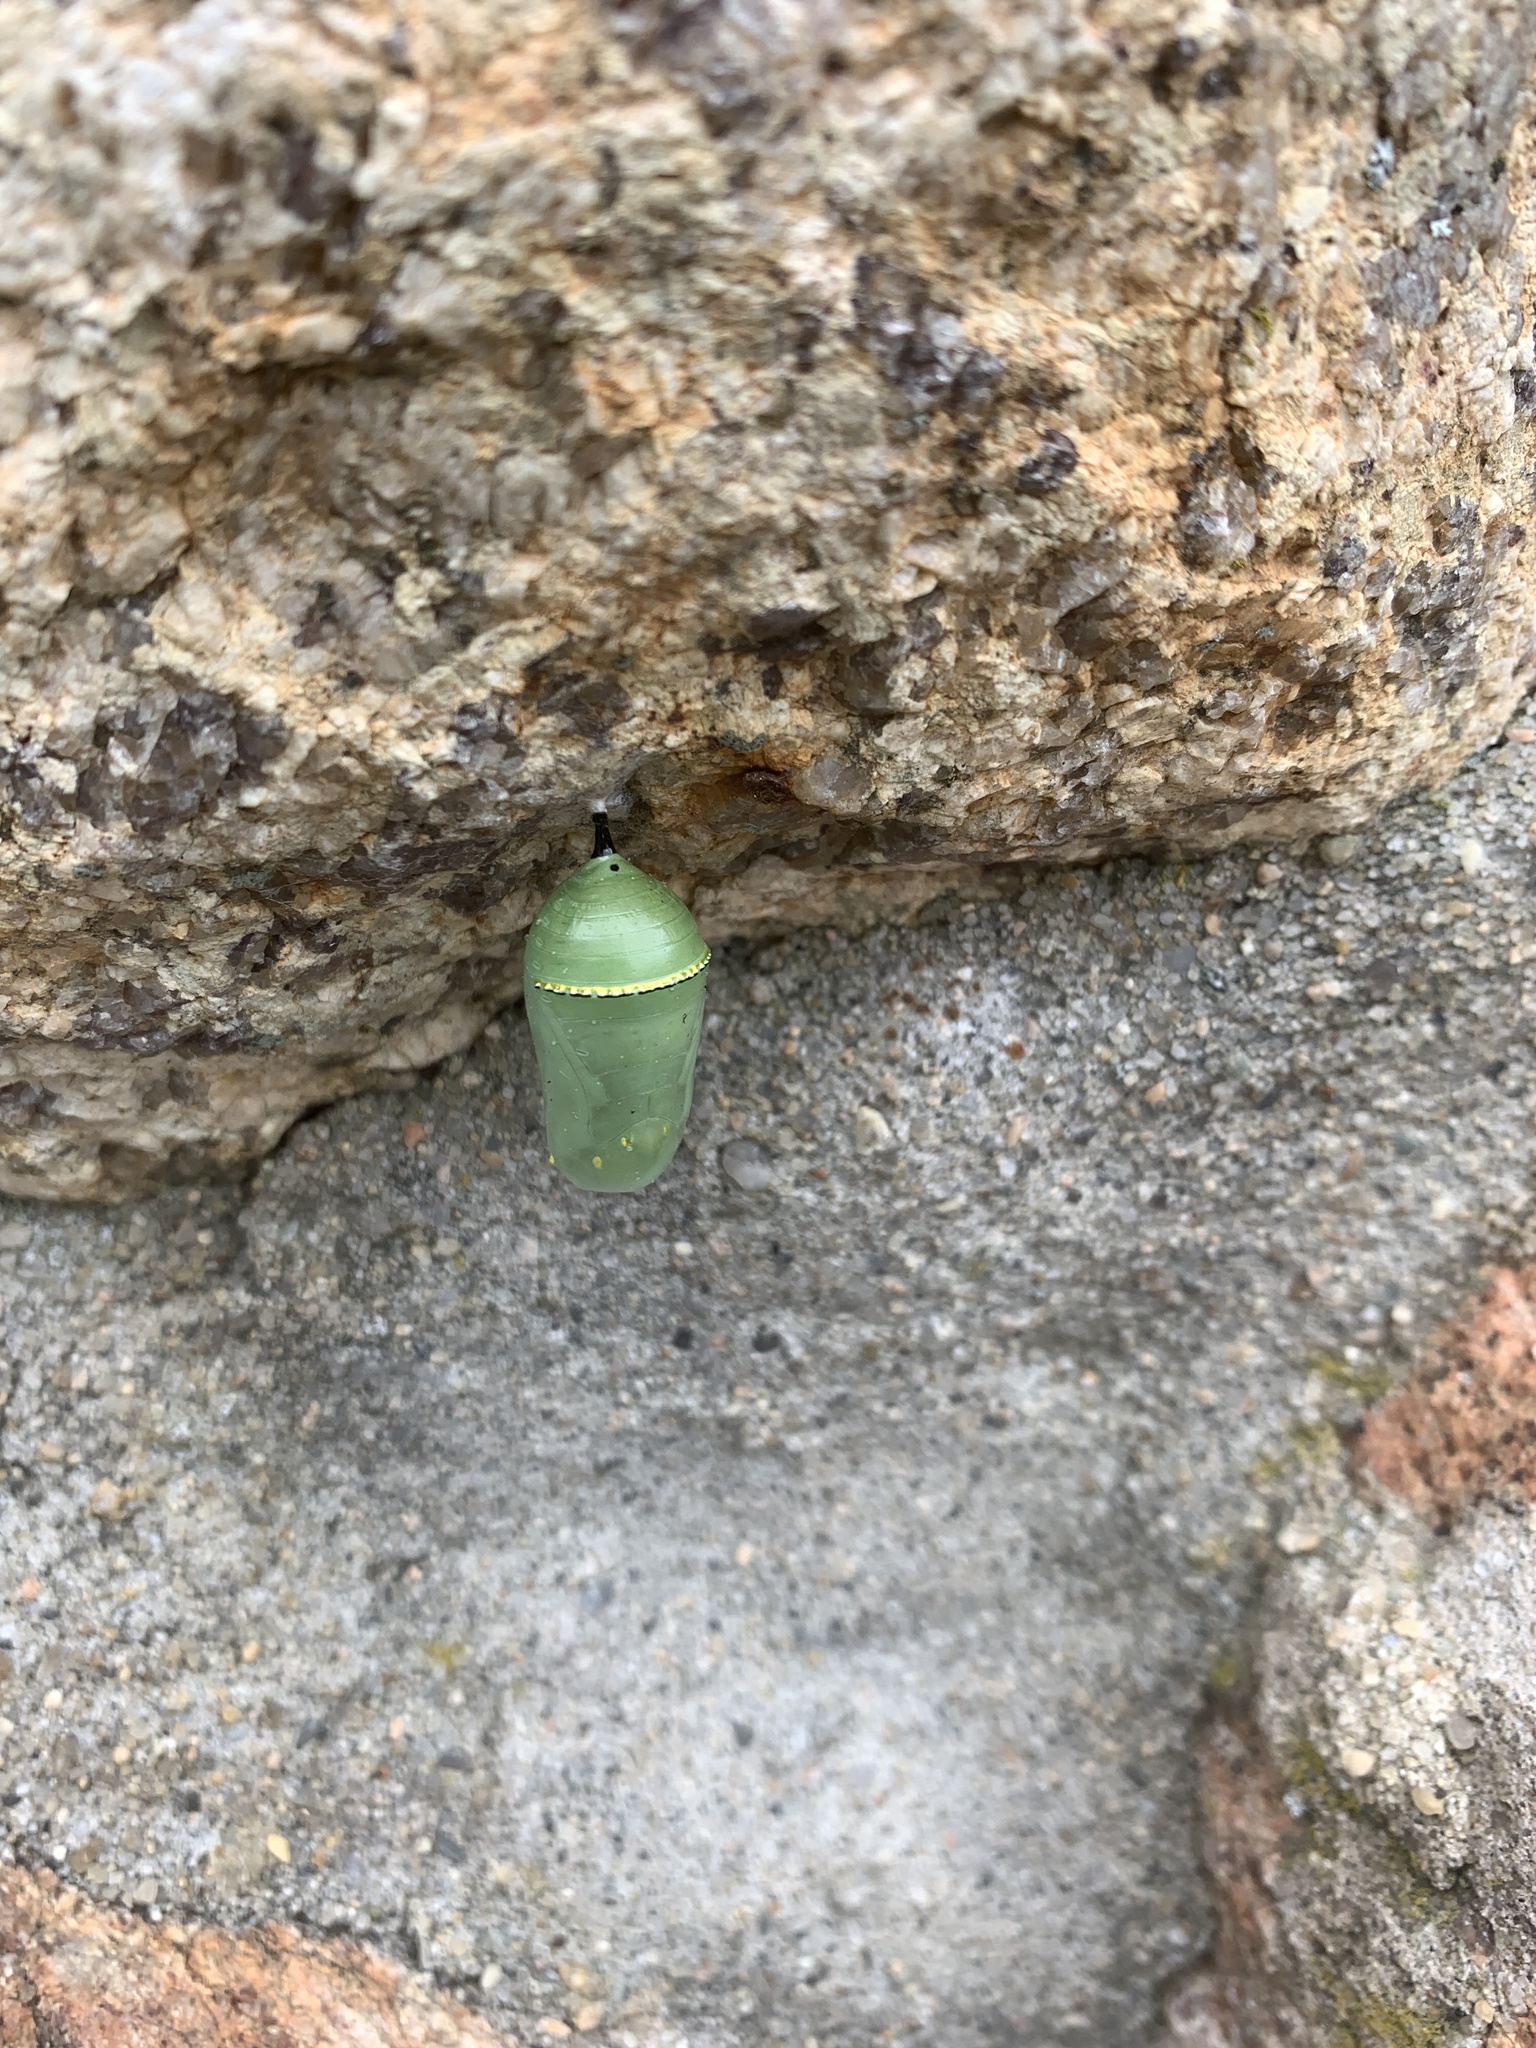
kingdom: Animalia
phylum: Arthropoda
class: Insecta
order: Lepidoptera
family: Nymphalidae
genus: Danaus
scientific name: Danaus plexippus
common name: Monarch
